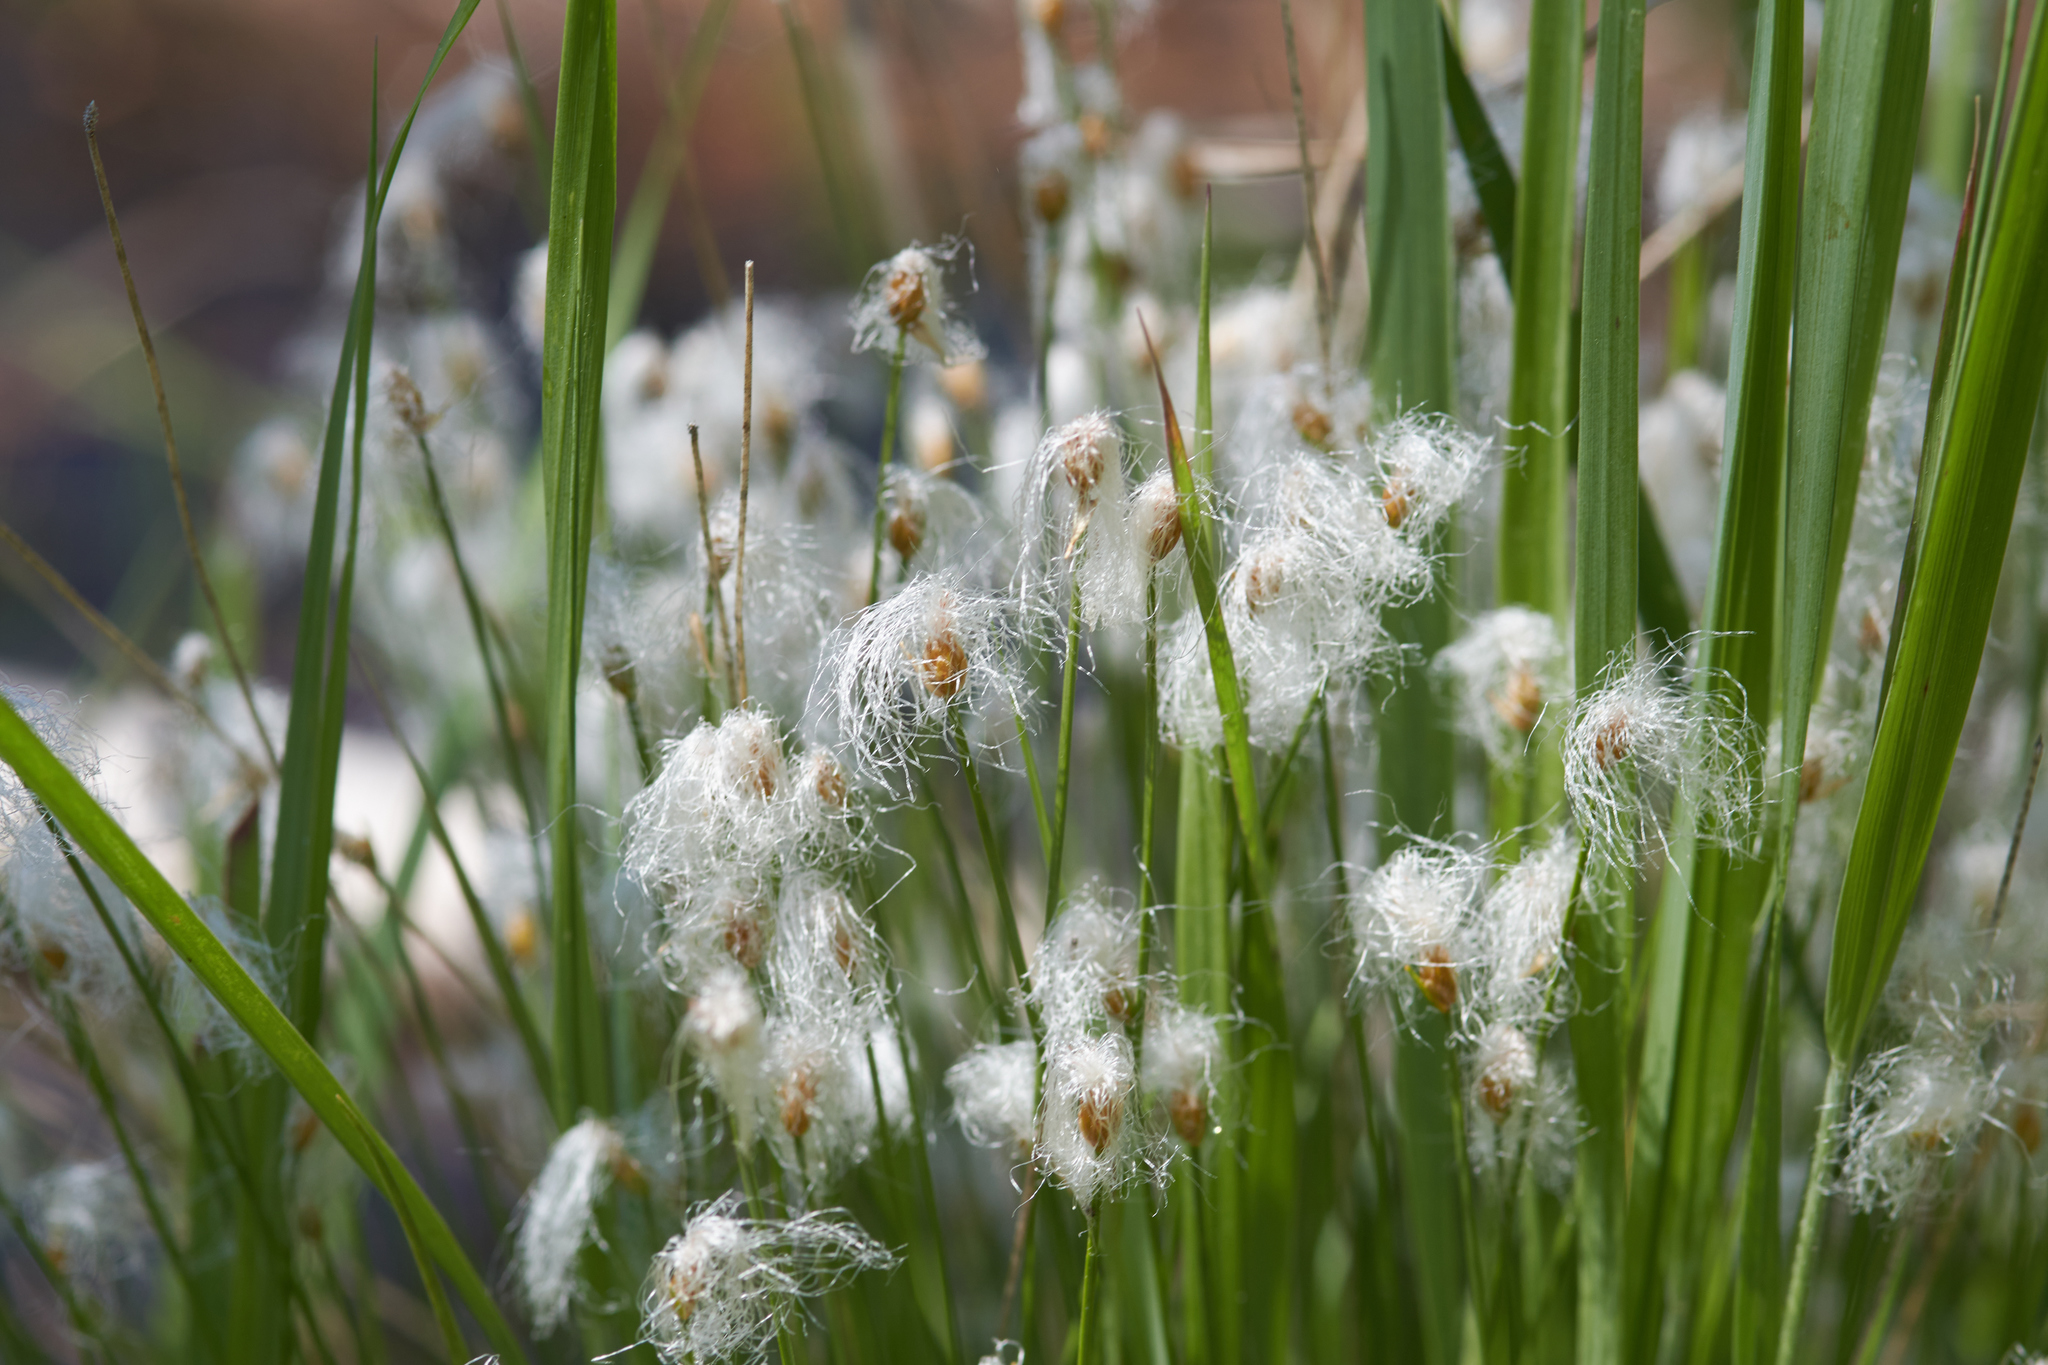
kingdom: Plantae
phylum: Tracheophyta
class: Liliopsida
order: Poales
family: Cyperaceae
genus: Trichophorum
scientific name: Trichophorum alpinum
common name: Alpine bulrush
